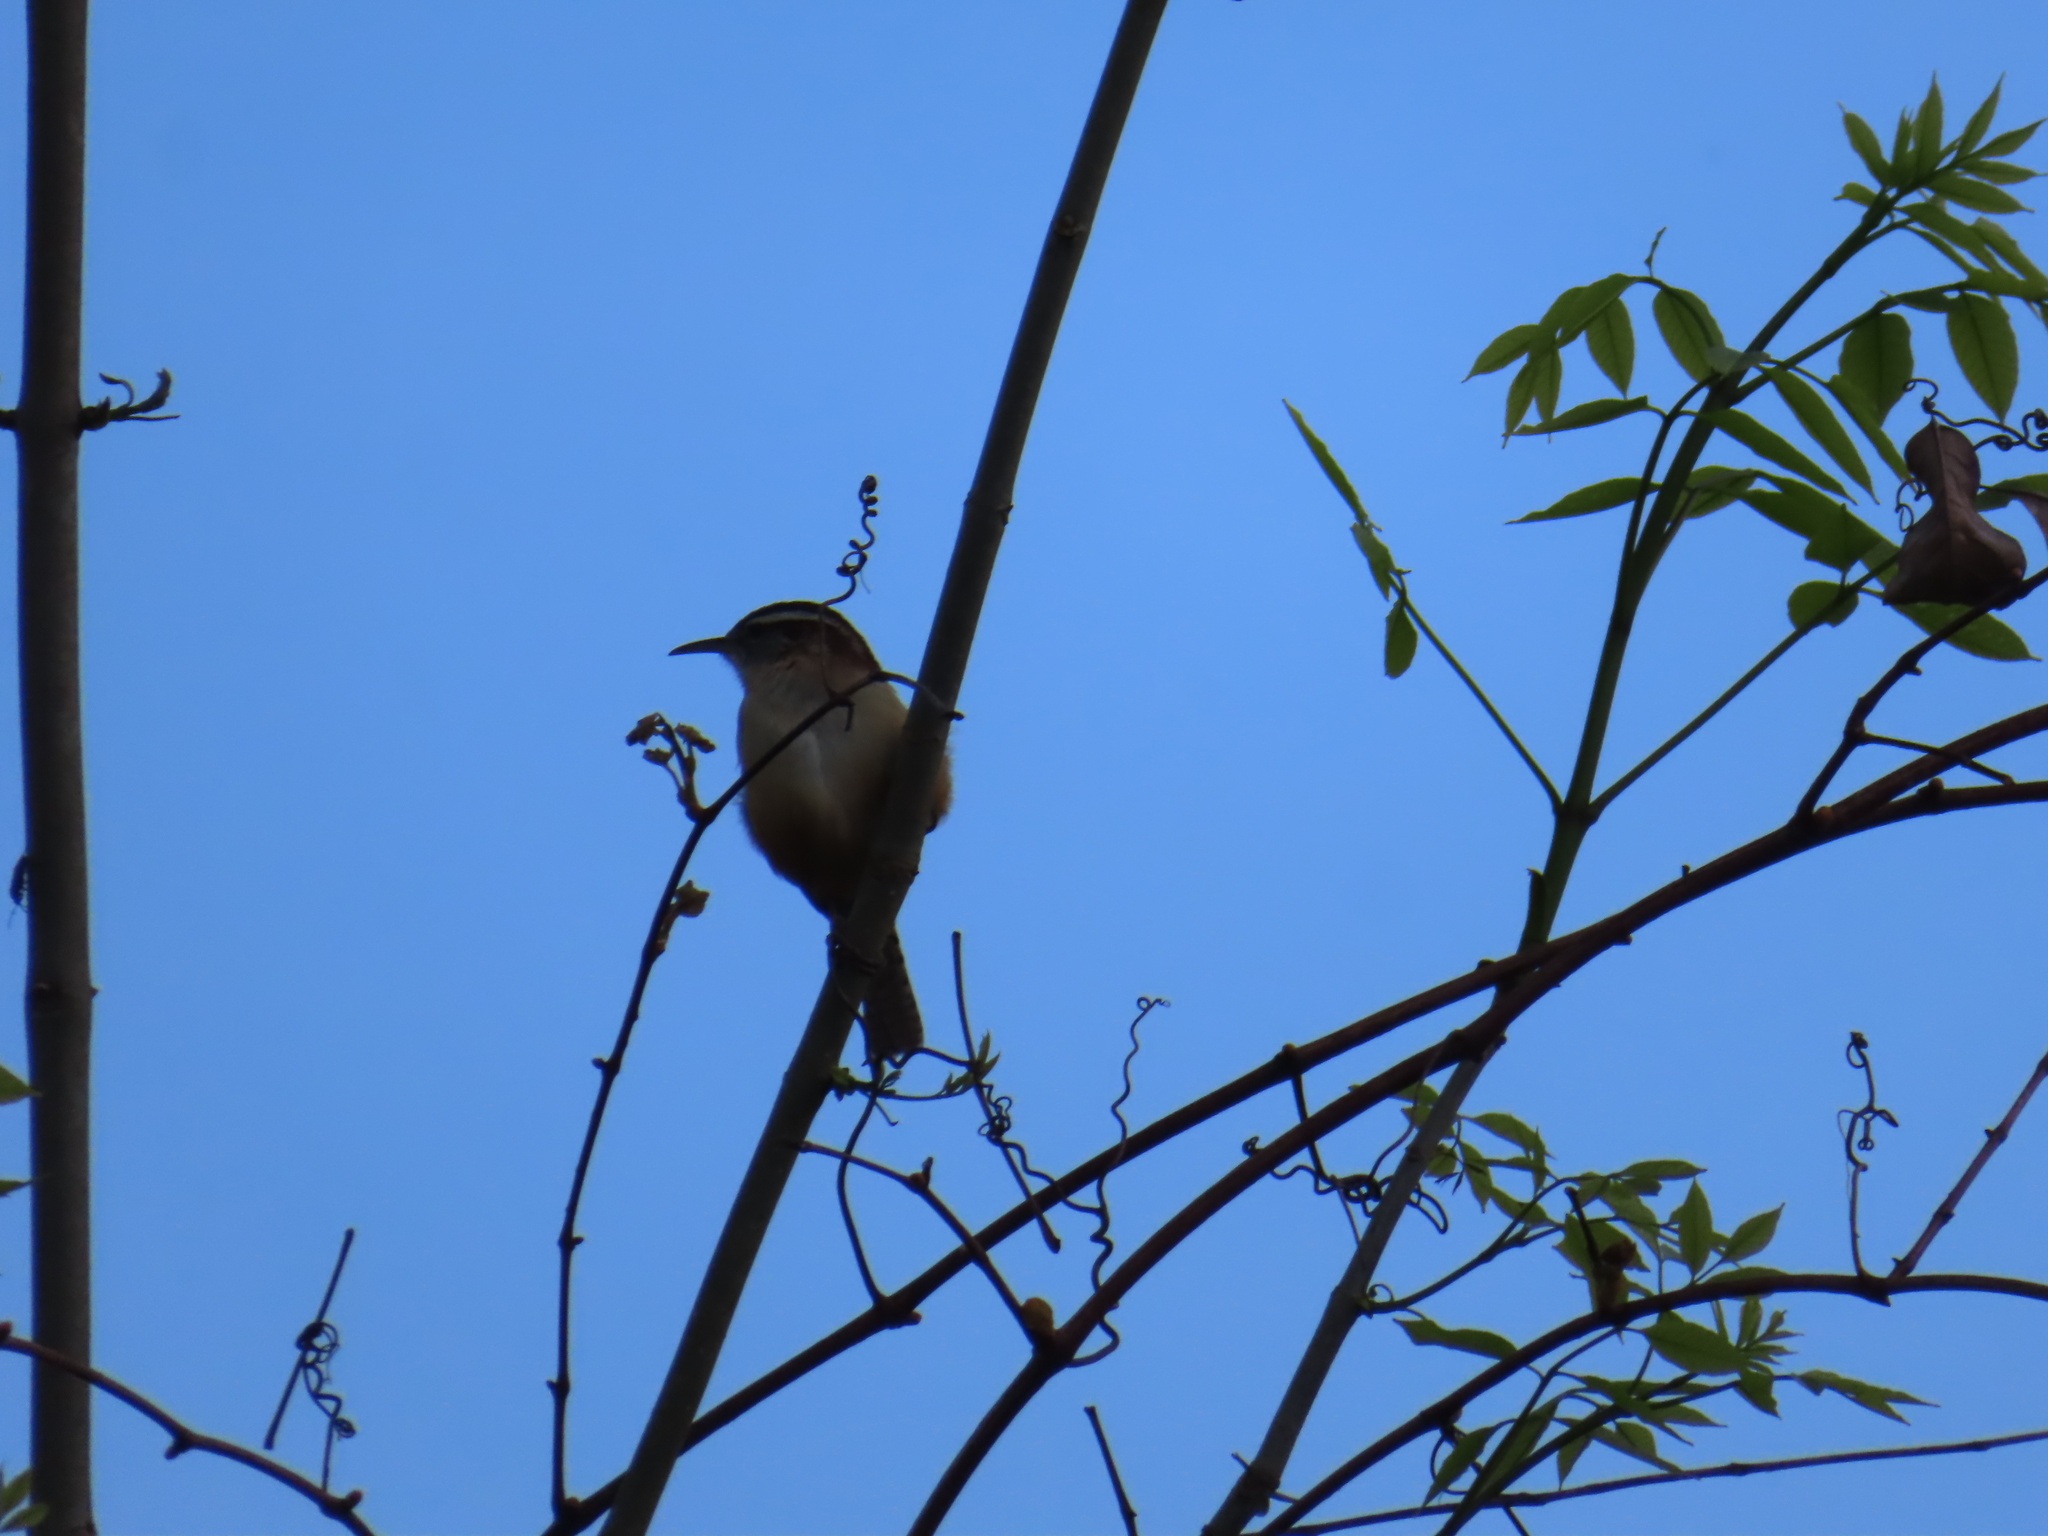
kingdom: Animalia
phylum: Chordata
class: Aves
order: Passeriformes
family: Troglodytidae
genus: Thryothorus
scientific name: Thryothorus ludovicianus
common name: Carolina wren
